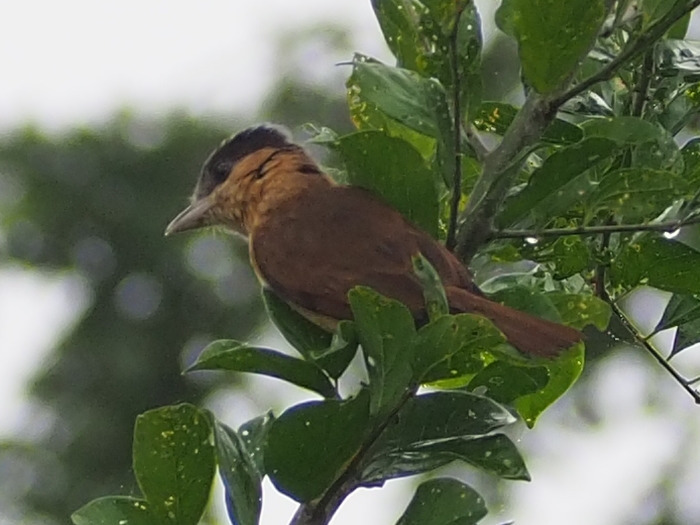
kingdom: Animalia
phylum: Chordata
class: Aves
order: Passeriformes
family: Cotingidae
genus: Pachyramphus
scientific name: Pachyramphus aglaiae
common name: Rose-throated becard
